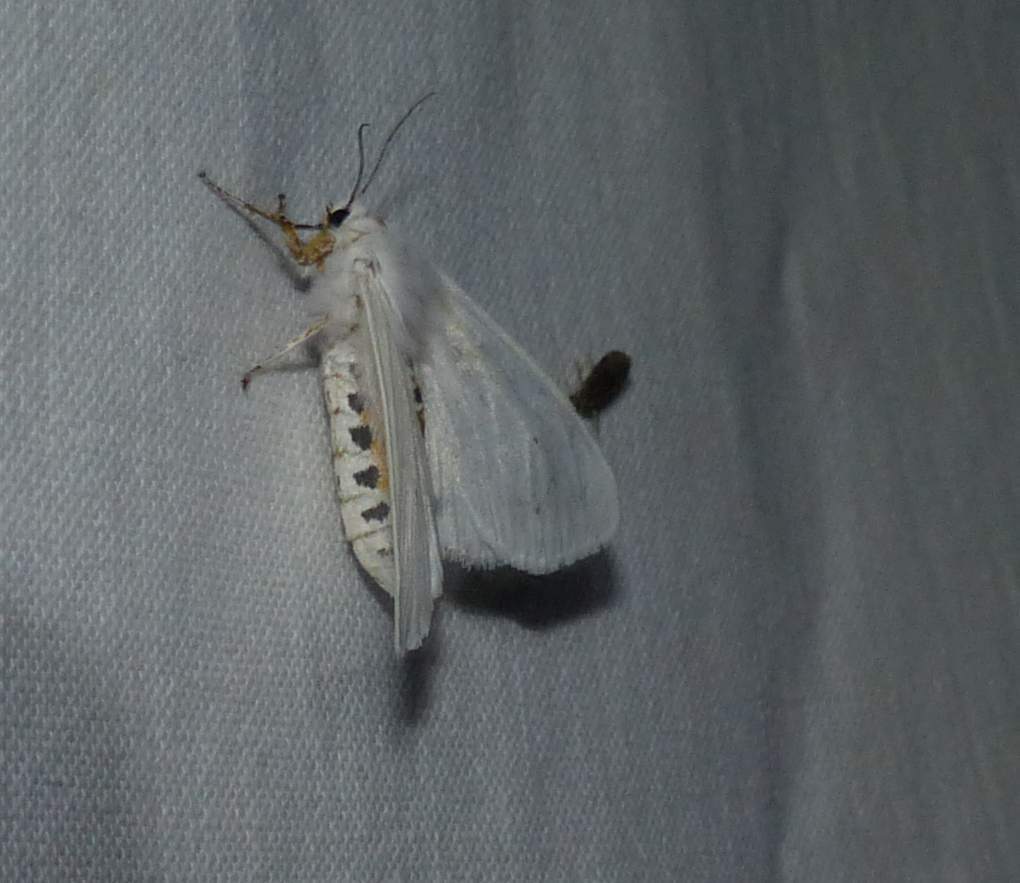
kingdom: Animalia
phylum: Arthropoda
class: Insecta
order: Lepidoptera
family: Erebidae
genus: Spilosoma
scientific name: Spilosoma virginica
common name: Virginia tiger moth
